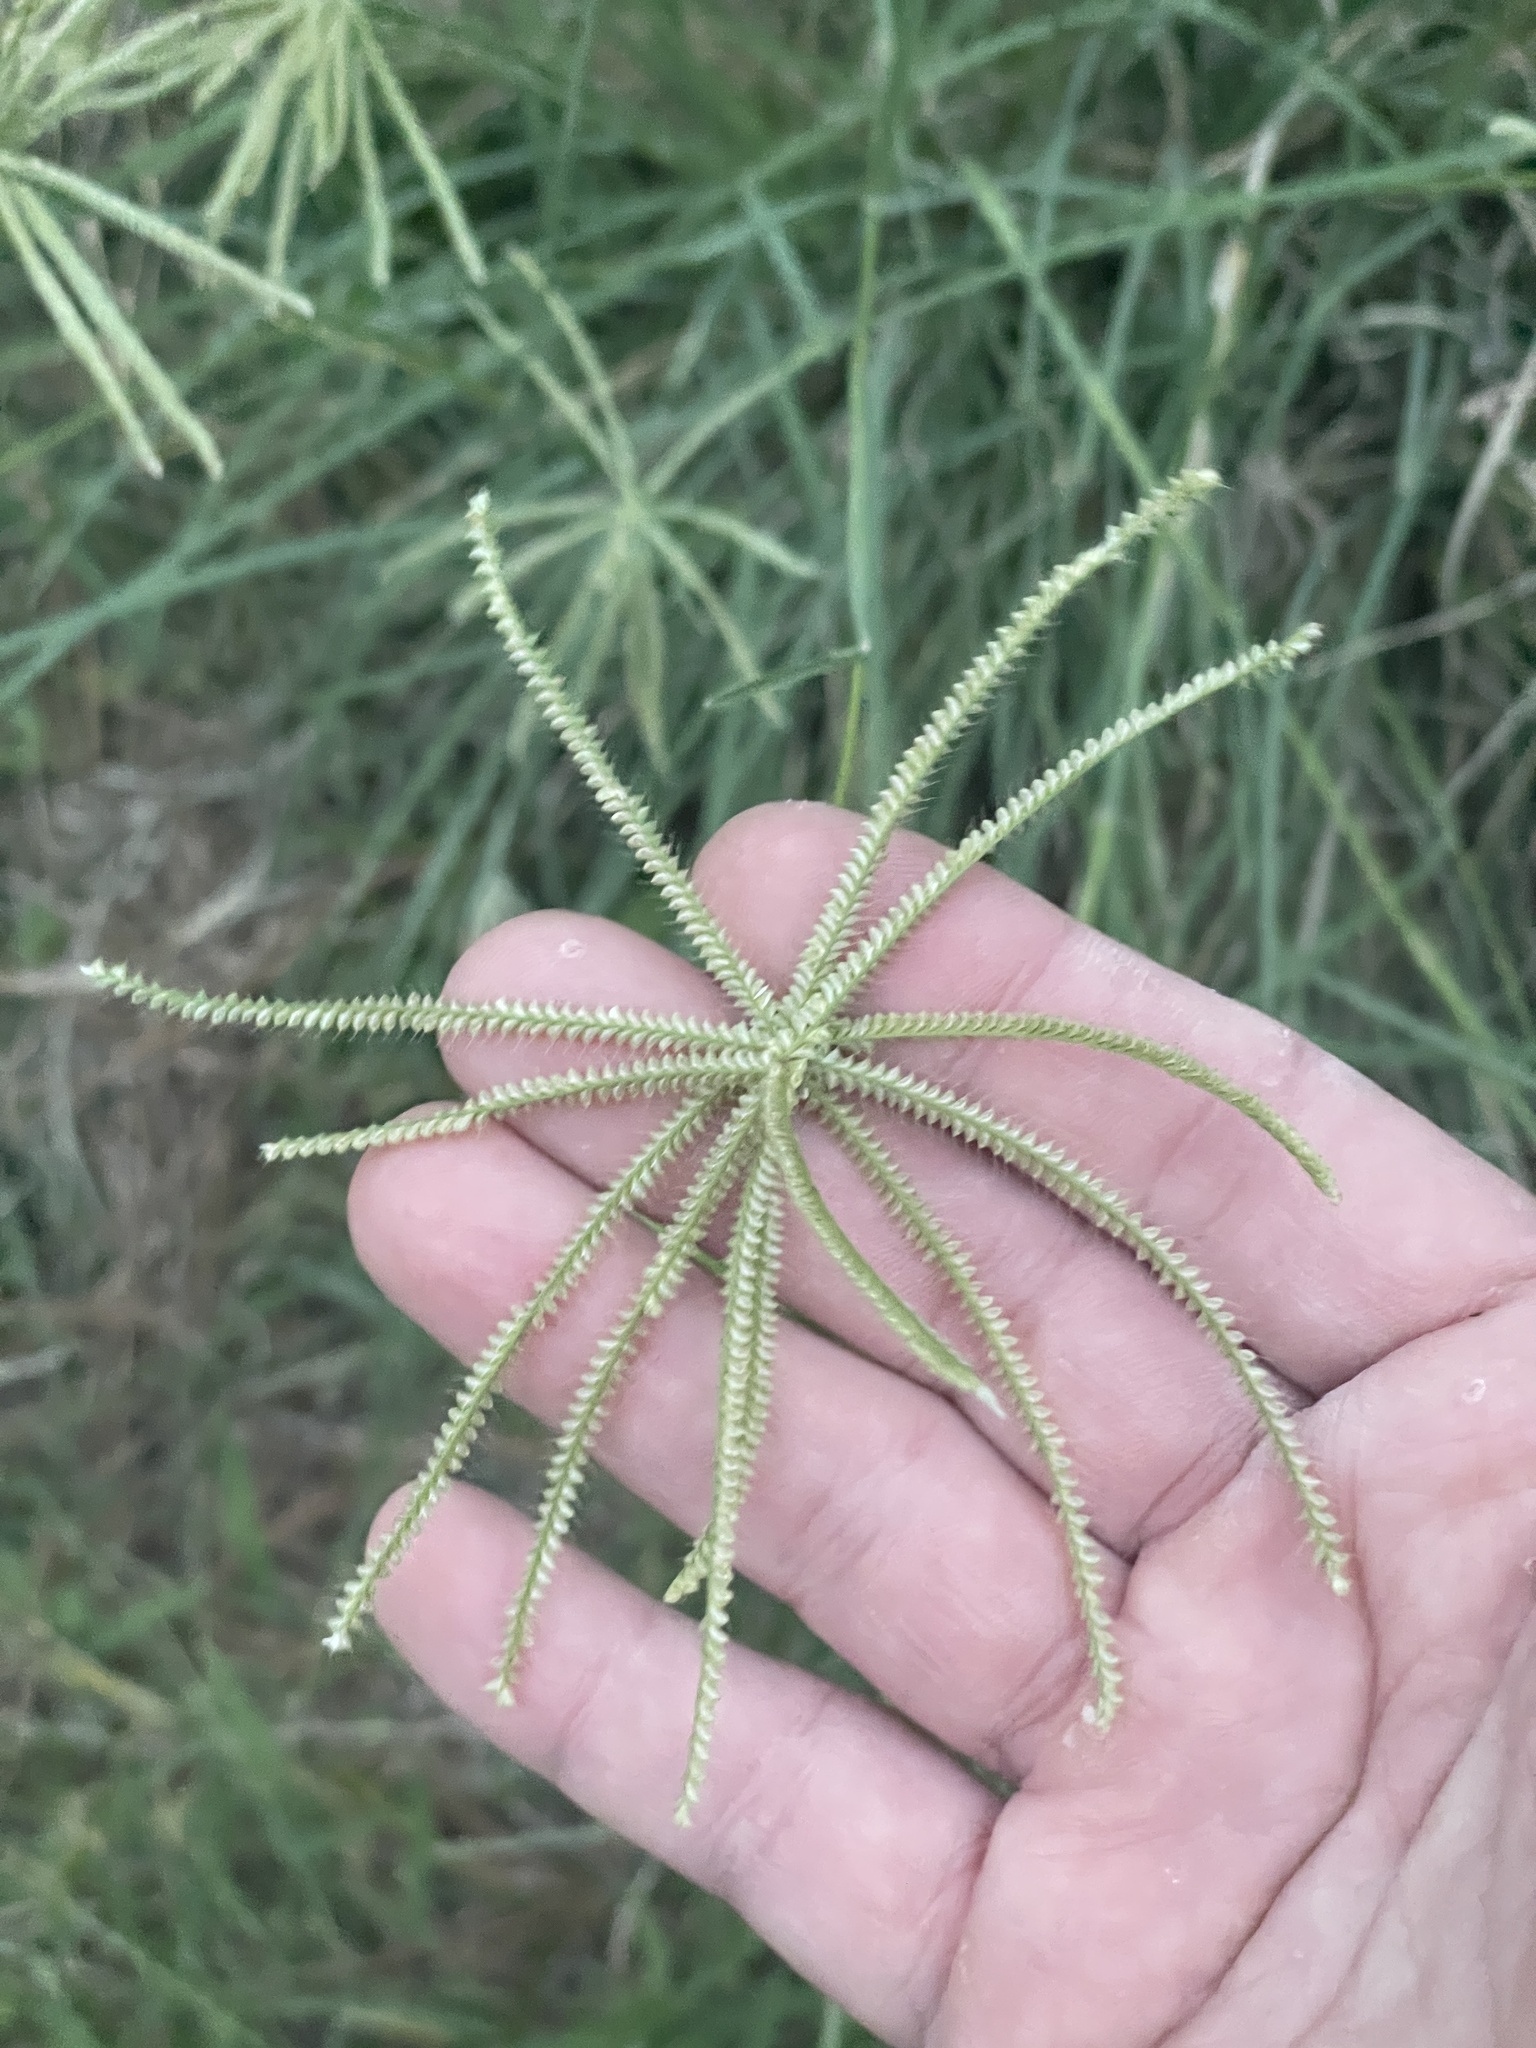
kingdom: Plantae
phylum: Tracheophyta
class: Liliopsida
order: Poales
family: Poaceae
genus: Chloris
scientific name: Chloris cucullata
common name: Hooded windmill grass
